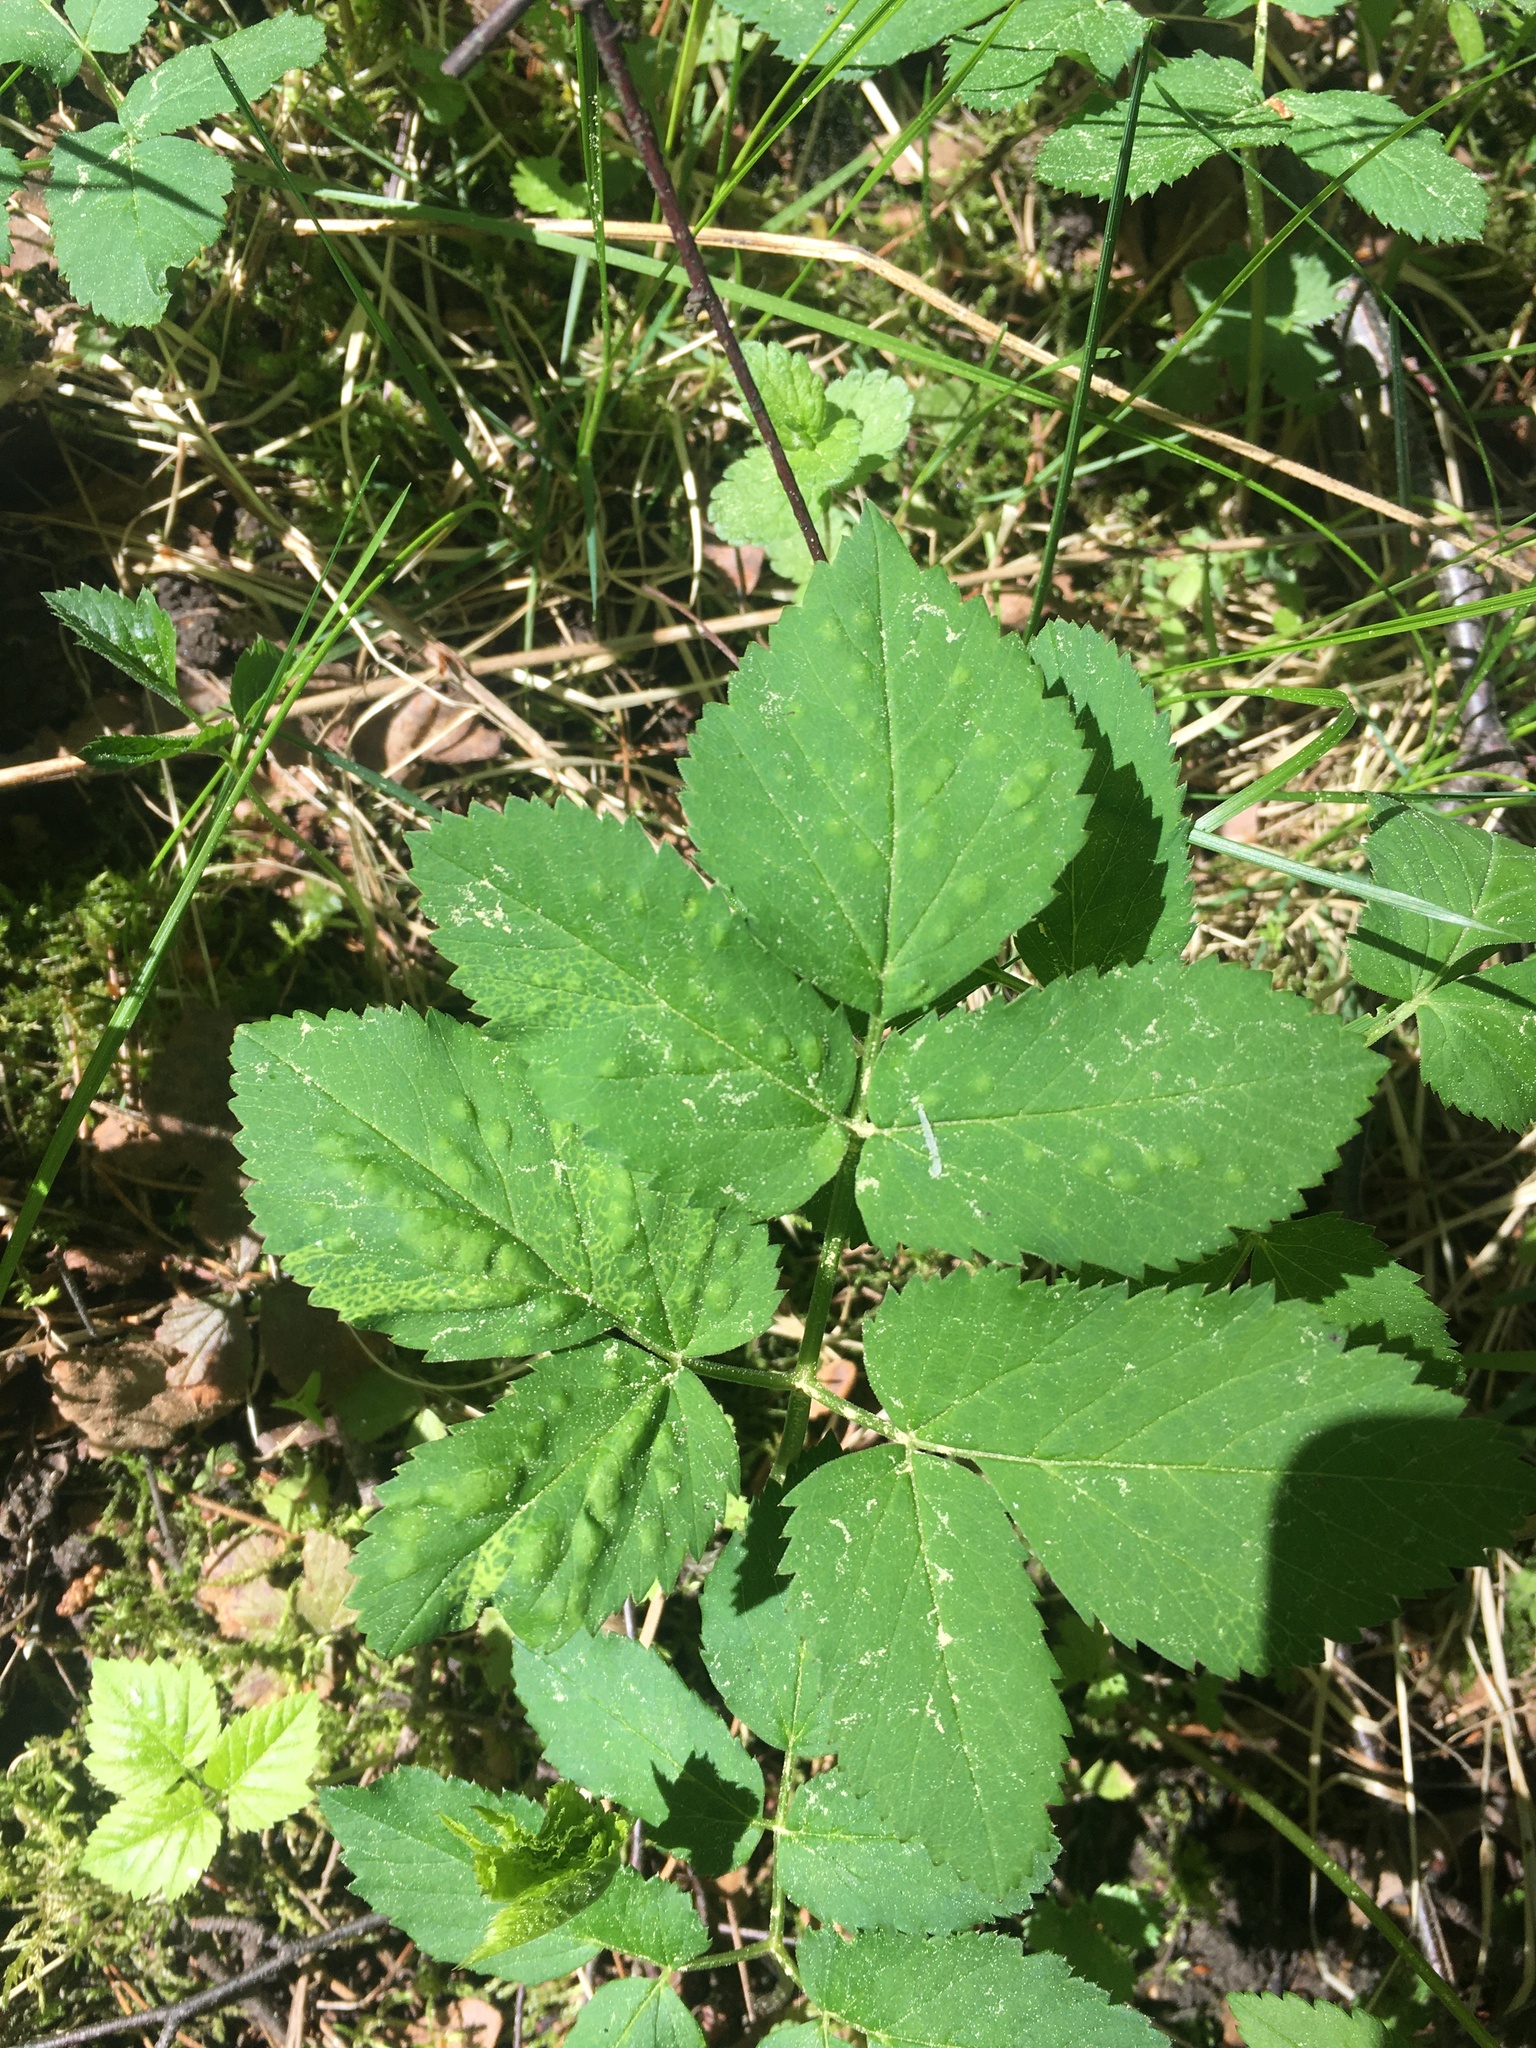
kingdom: Plantae
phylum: Tracheophyta
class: Magnoliopsida
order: Apiales
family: Apiaceae
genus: Aegopodium
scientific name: Aegopodium podagraria
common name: Ground-elder
